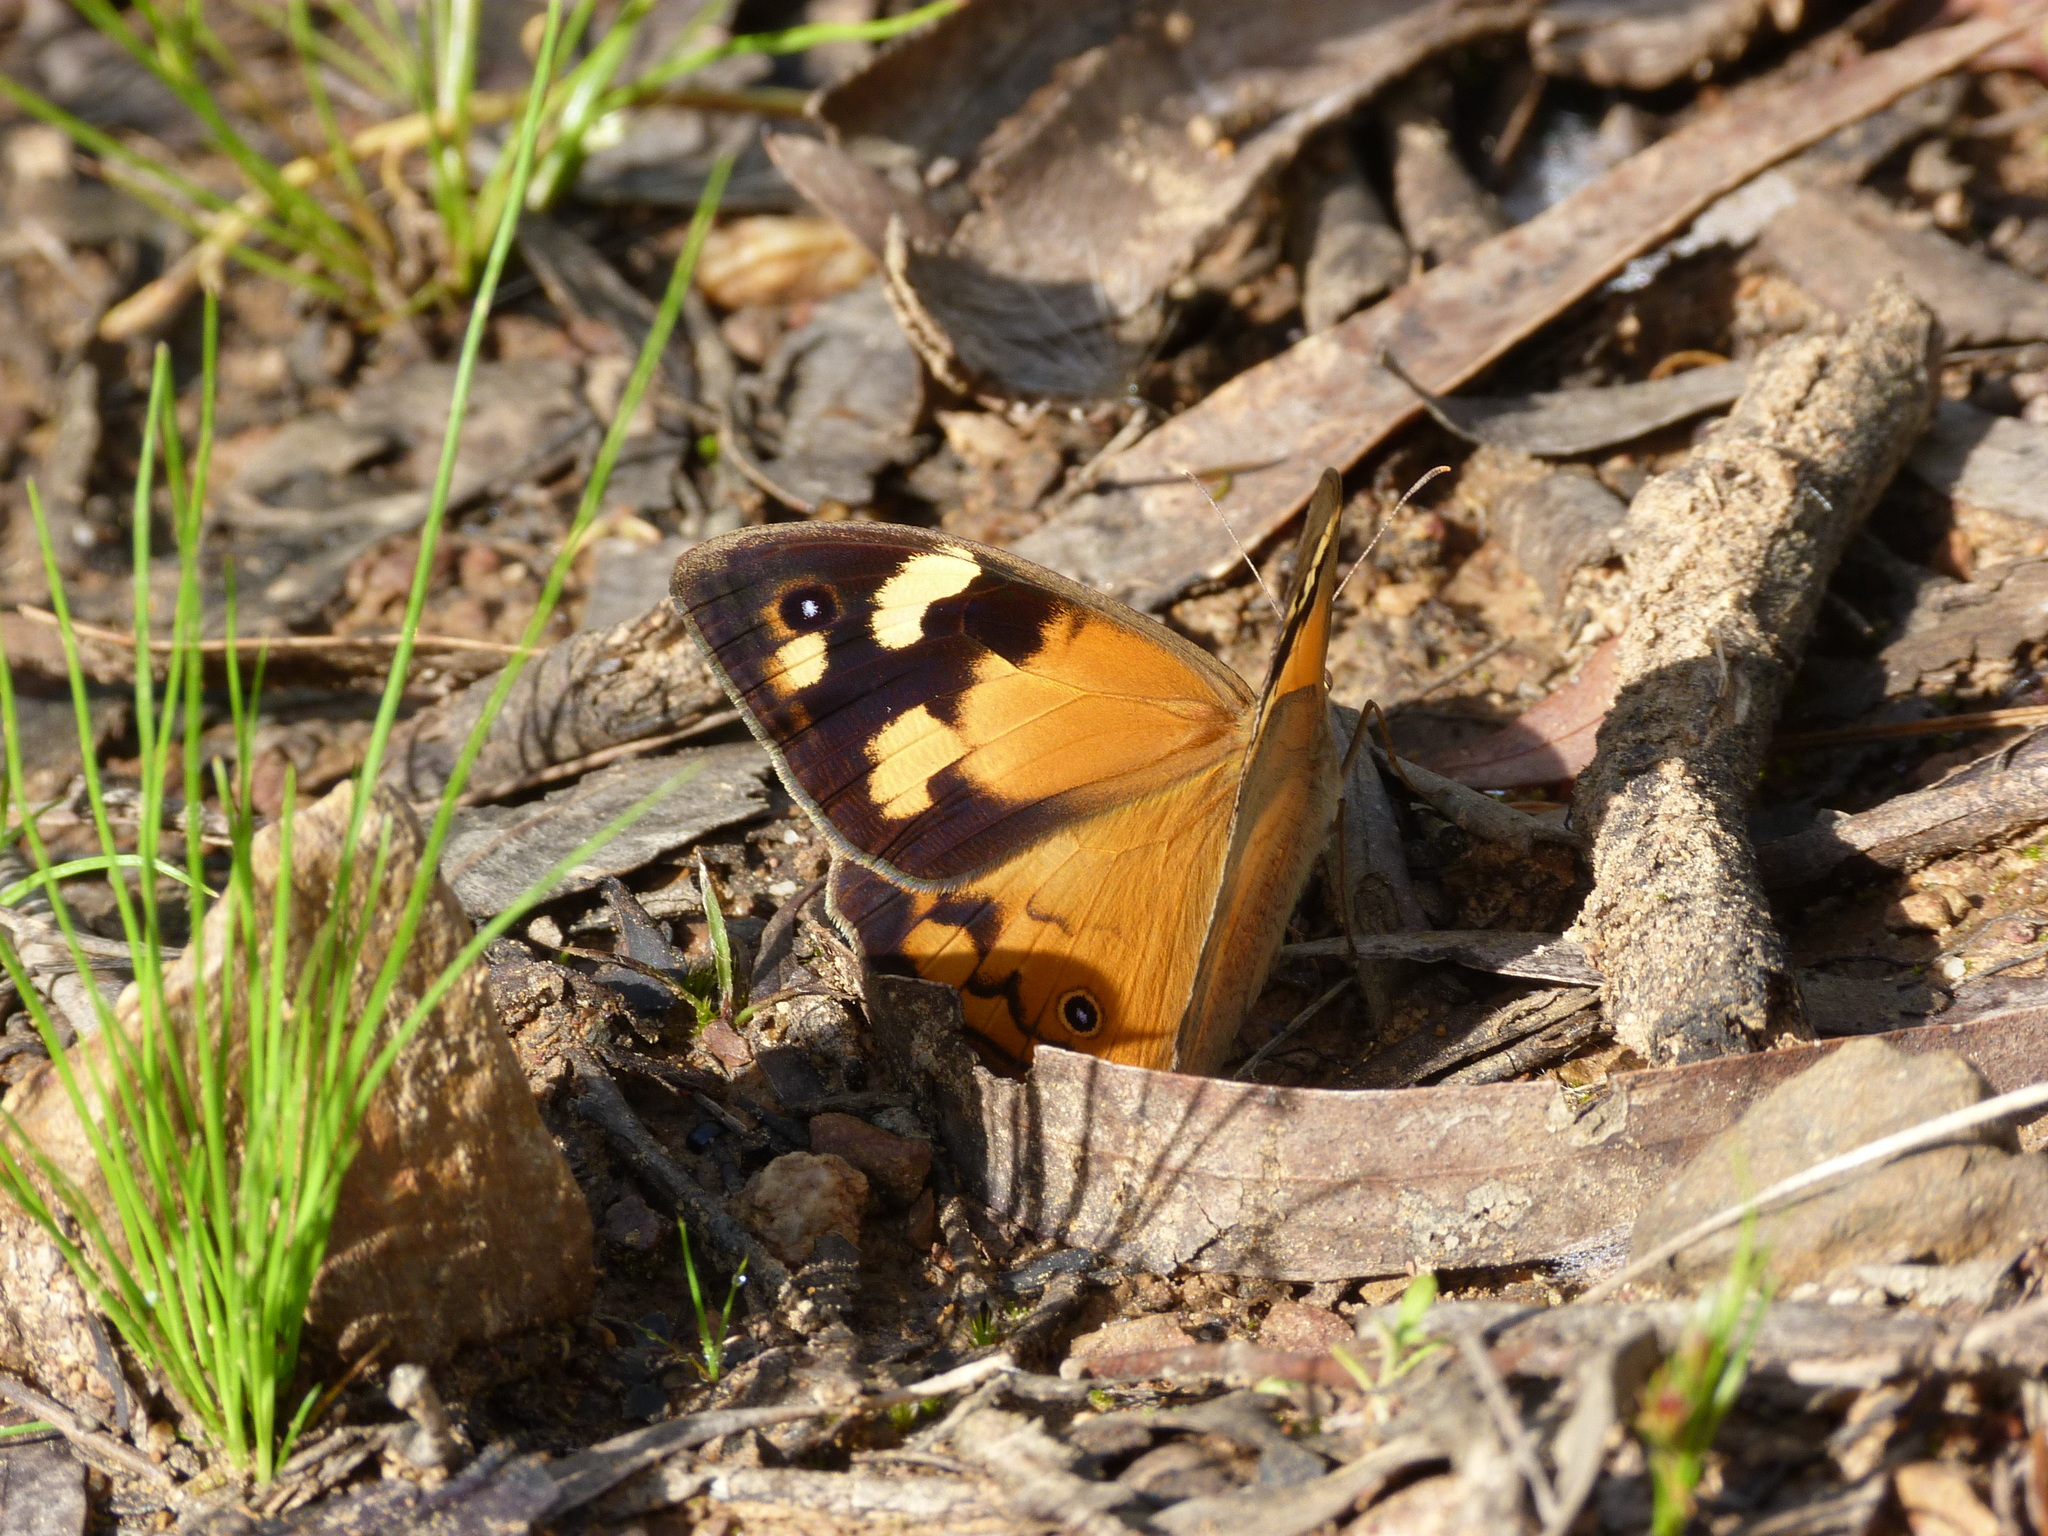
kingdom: Animalia
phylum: Arthropoda
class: Insecta
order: Lepidoptera
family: Nymphalidae
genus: Heteronympha
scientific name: Heteronympha merope
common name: Common brown
